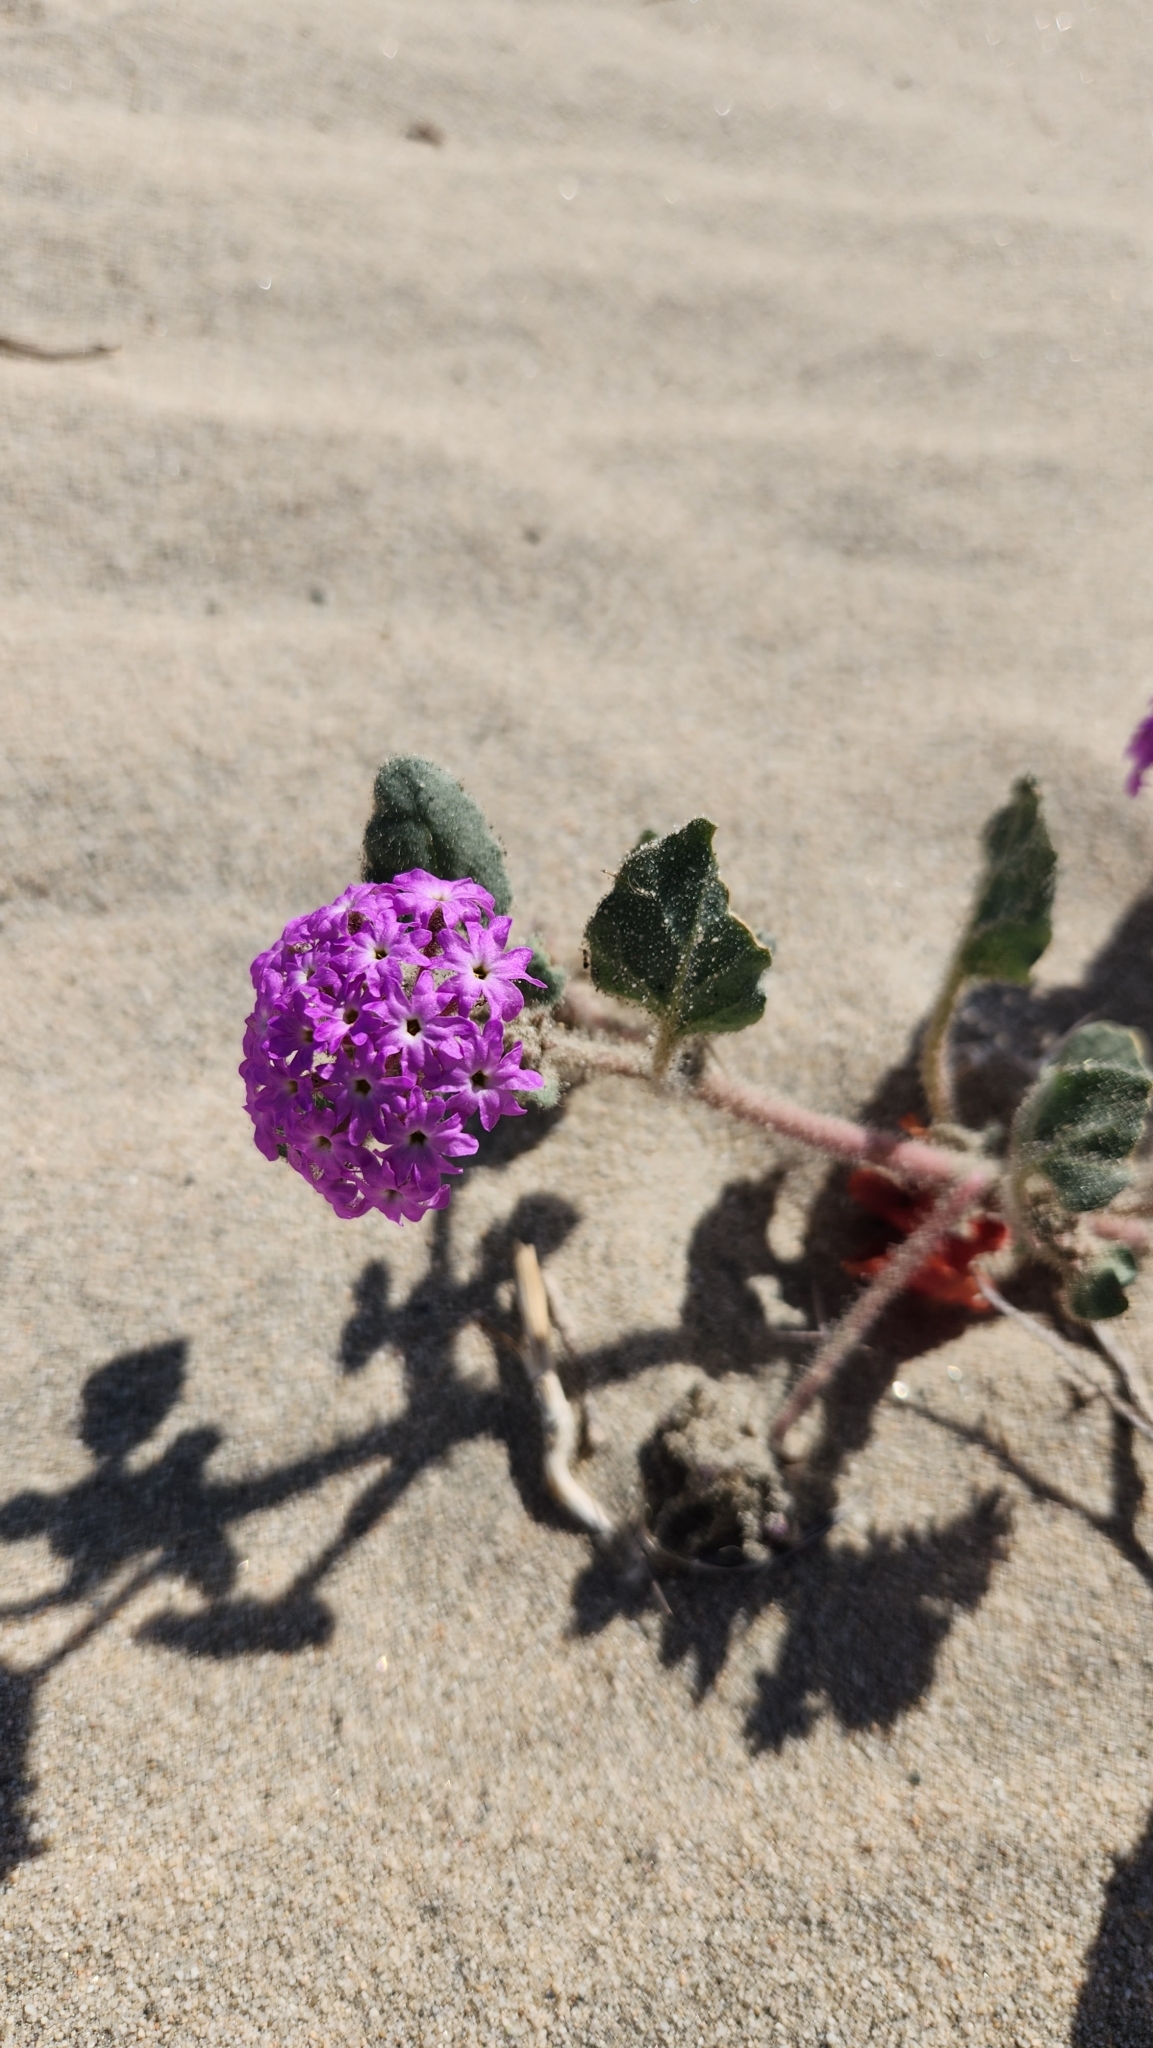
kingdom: Plantae
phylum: Tracheophyta
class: Magnoliopsida
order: Caryophyllales
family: Nyctaginaceae
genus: Abronia
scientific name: Abronia villosa
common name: Desert sand-verbena
